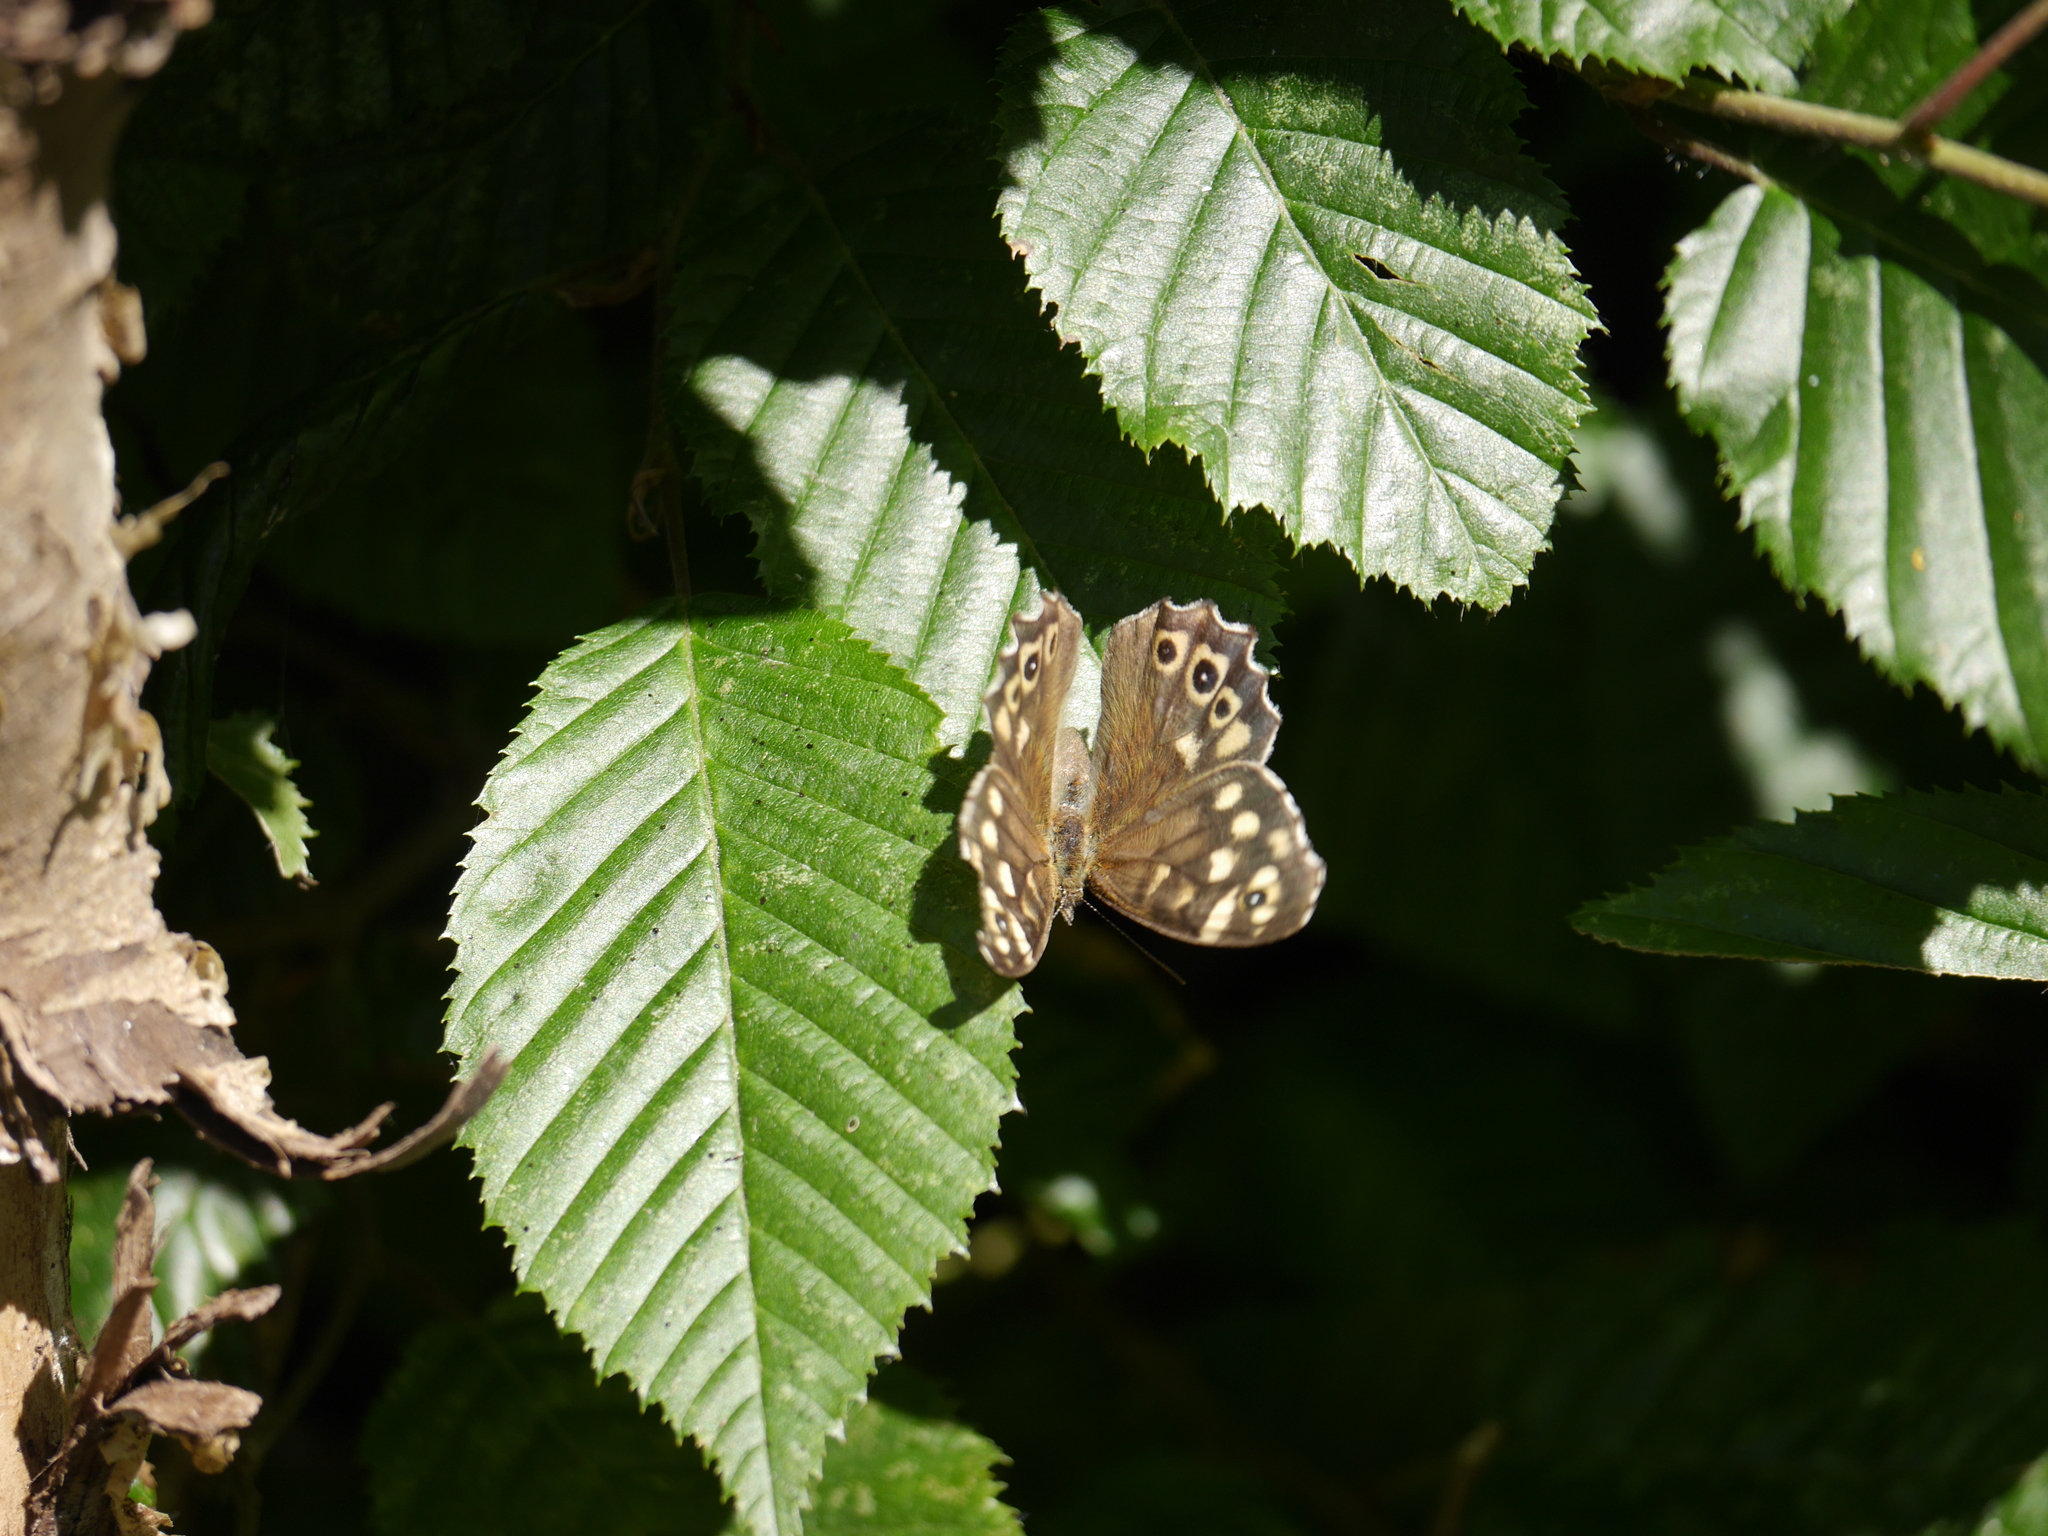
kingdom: Animalia
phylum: Arthropoda
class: Insecta
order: Lepidoptera
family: Nymphalidae
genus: Pararge
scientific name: Pararge aegeria
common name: Speckled wood
